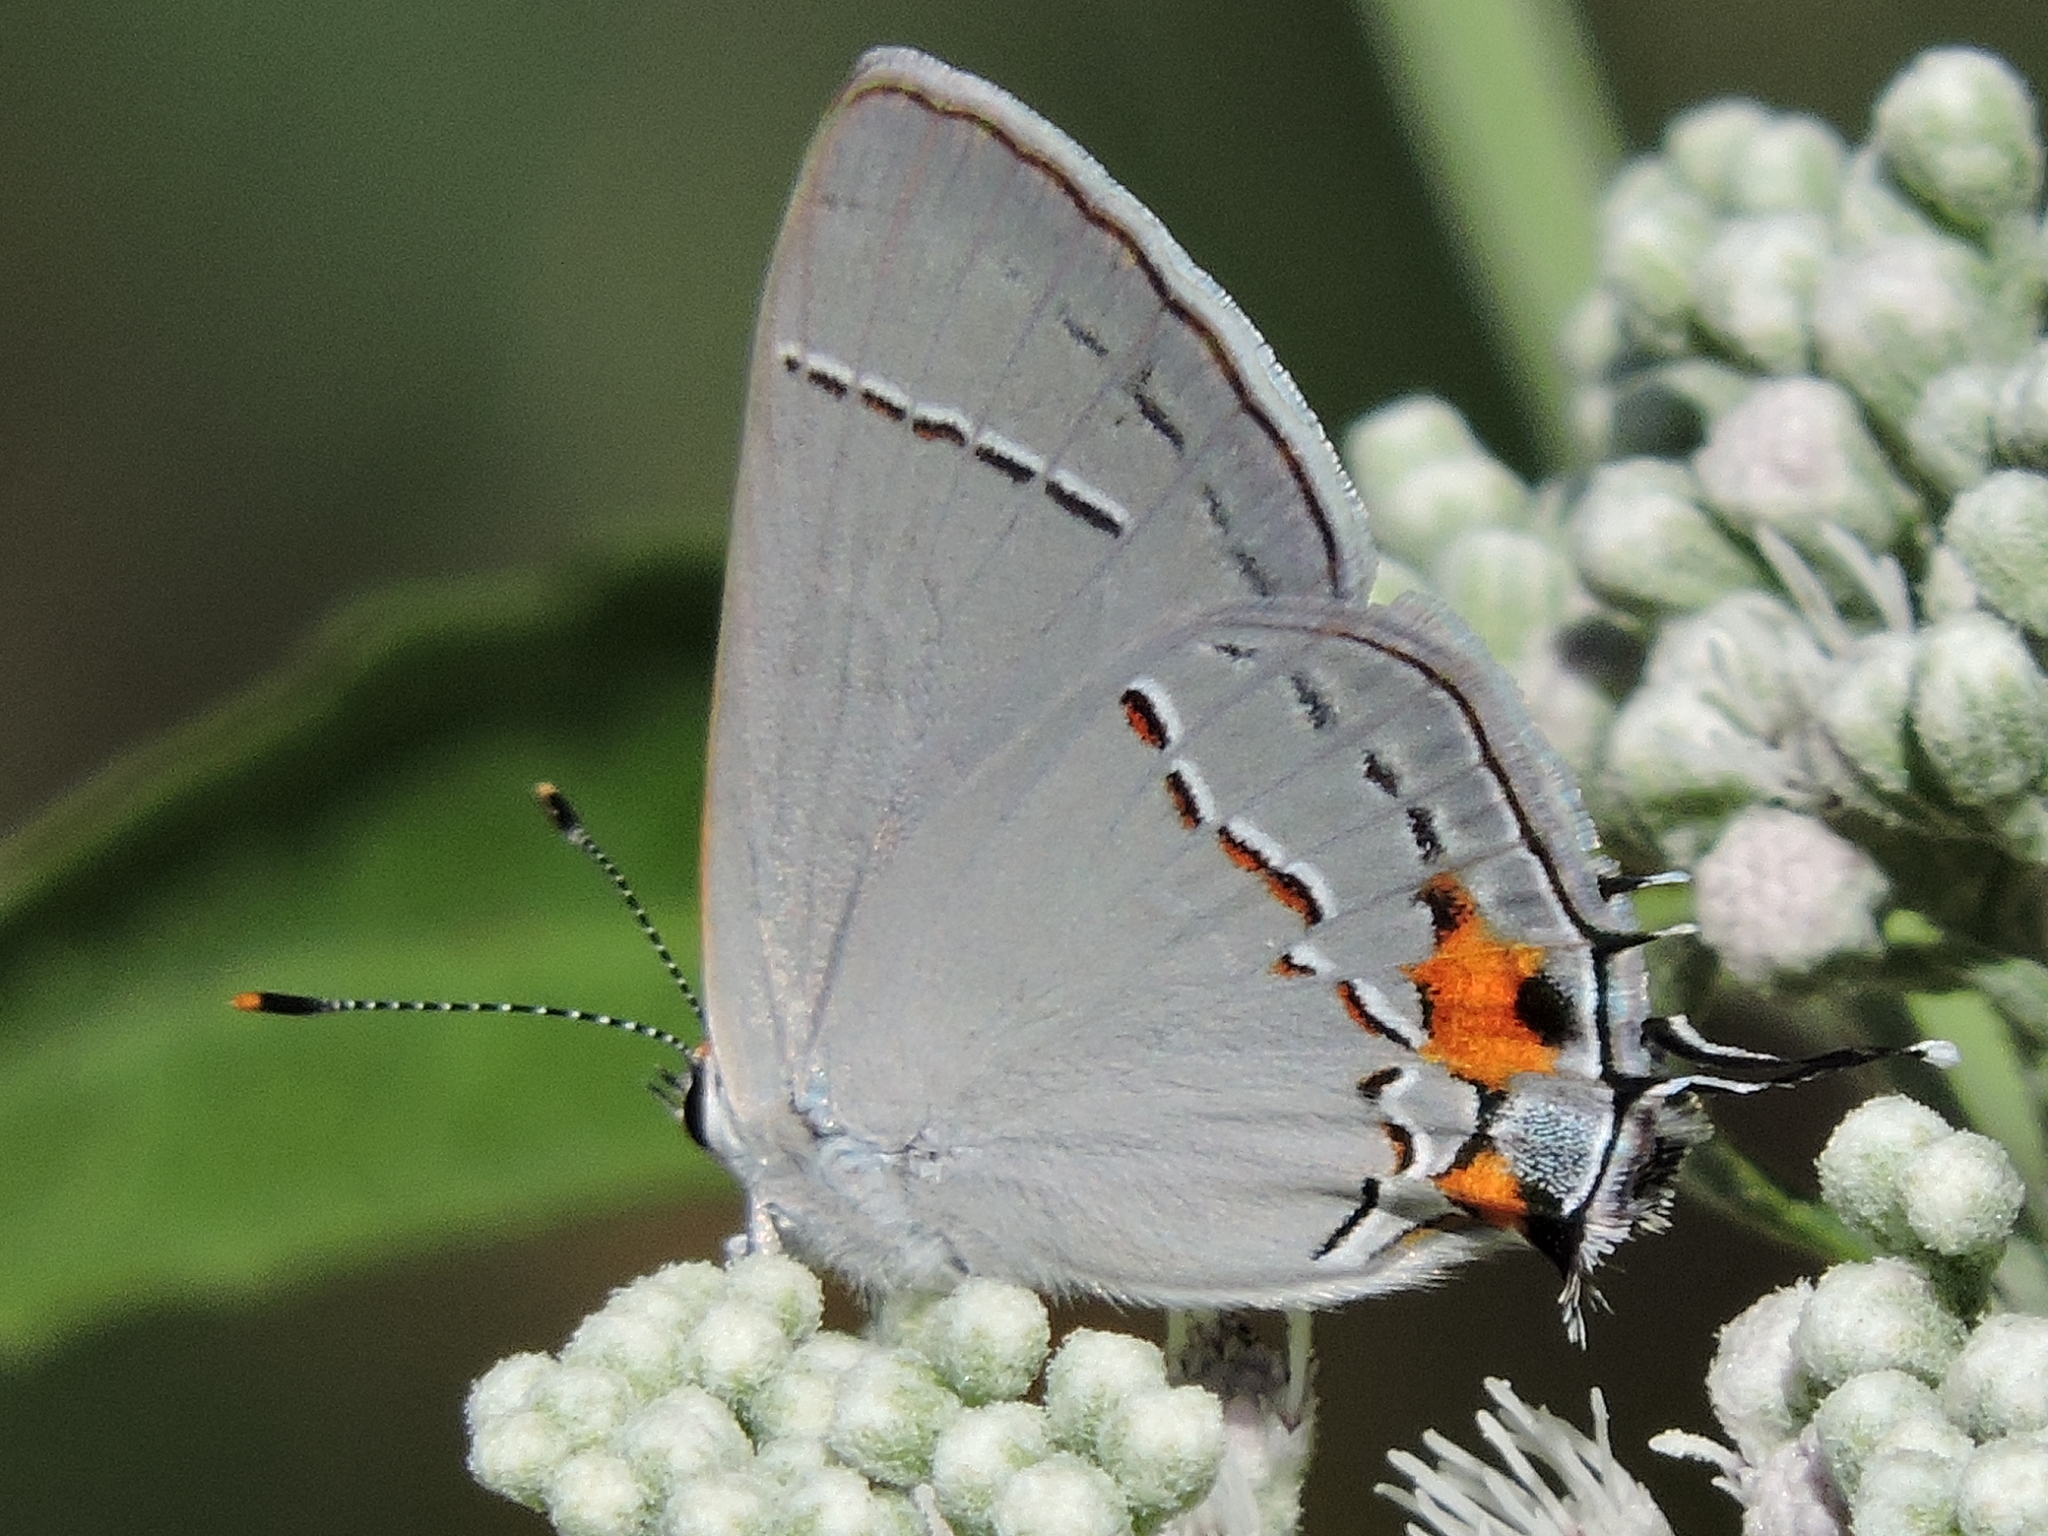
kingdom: Animalia
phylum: Arthropoda
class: Insecta
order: Lepidoptera
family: Lycaenidae
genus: Strymon
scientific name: Strymon melinus
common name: Gray hairstreak
